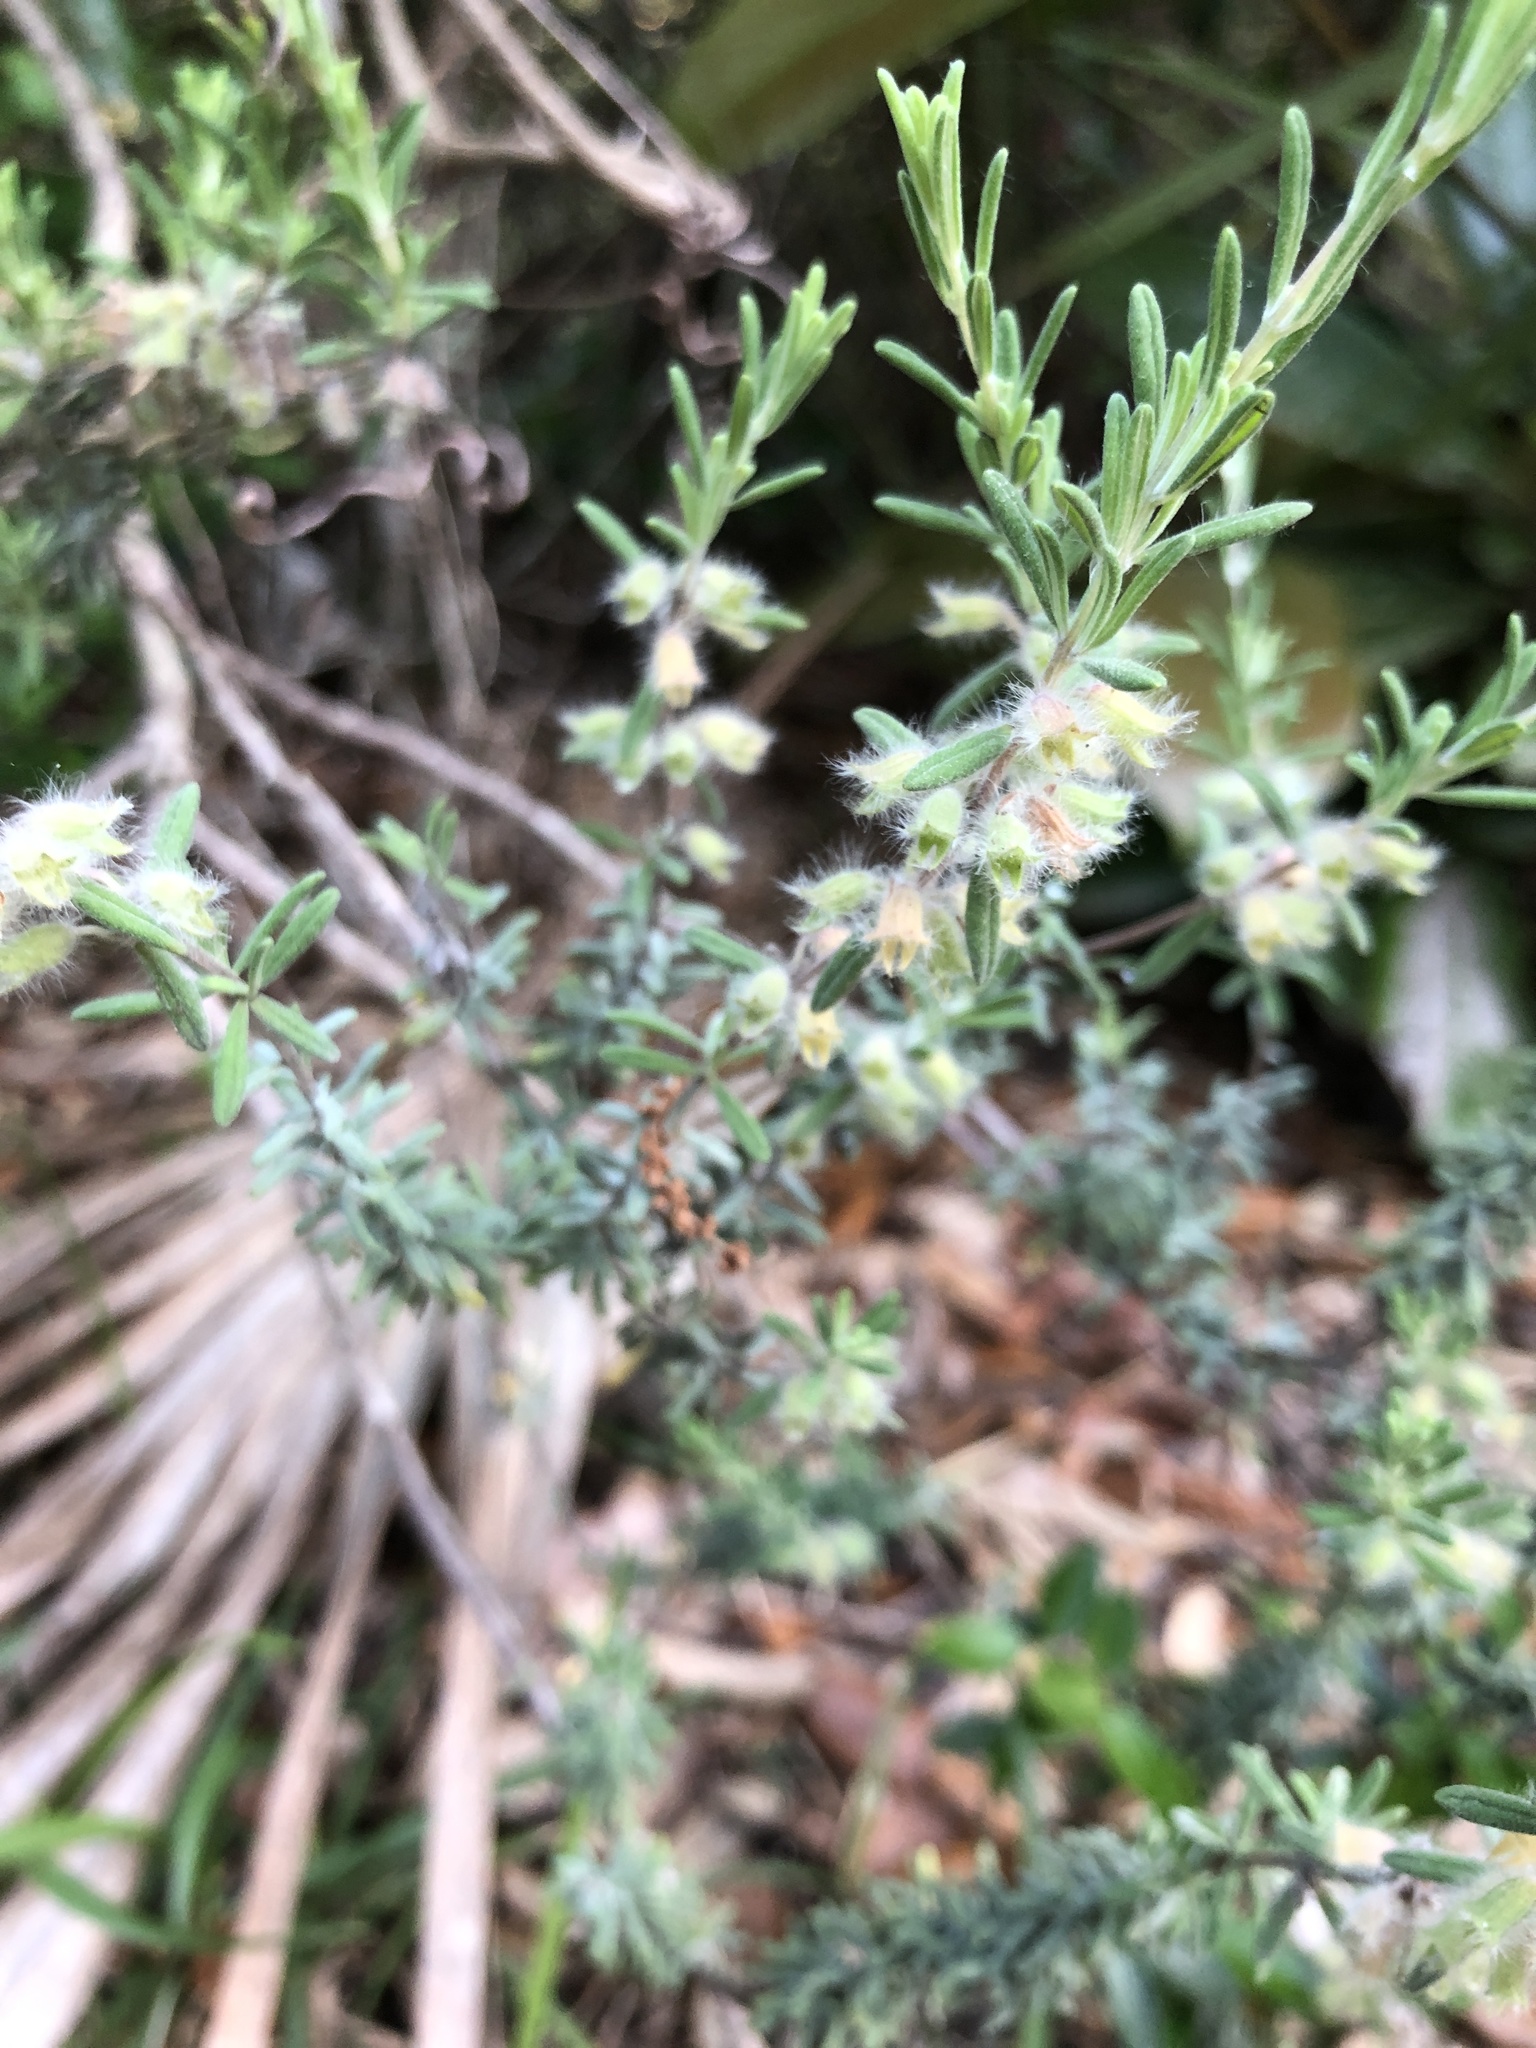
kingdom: Plantae
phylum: Tracheophyta
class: Magnoliopsida
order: Lamiales
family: Lamiaceae
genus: Conradina
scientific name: Conradina canescens
